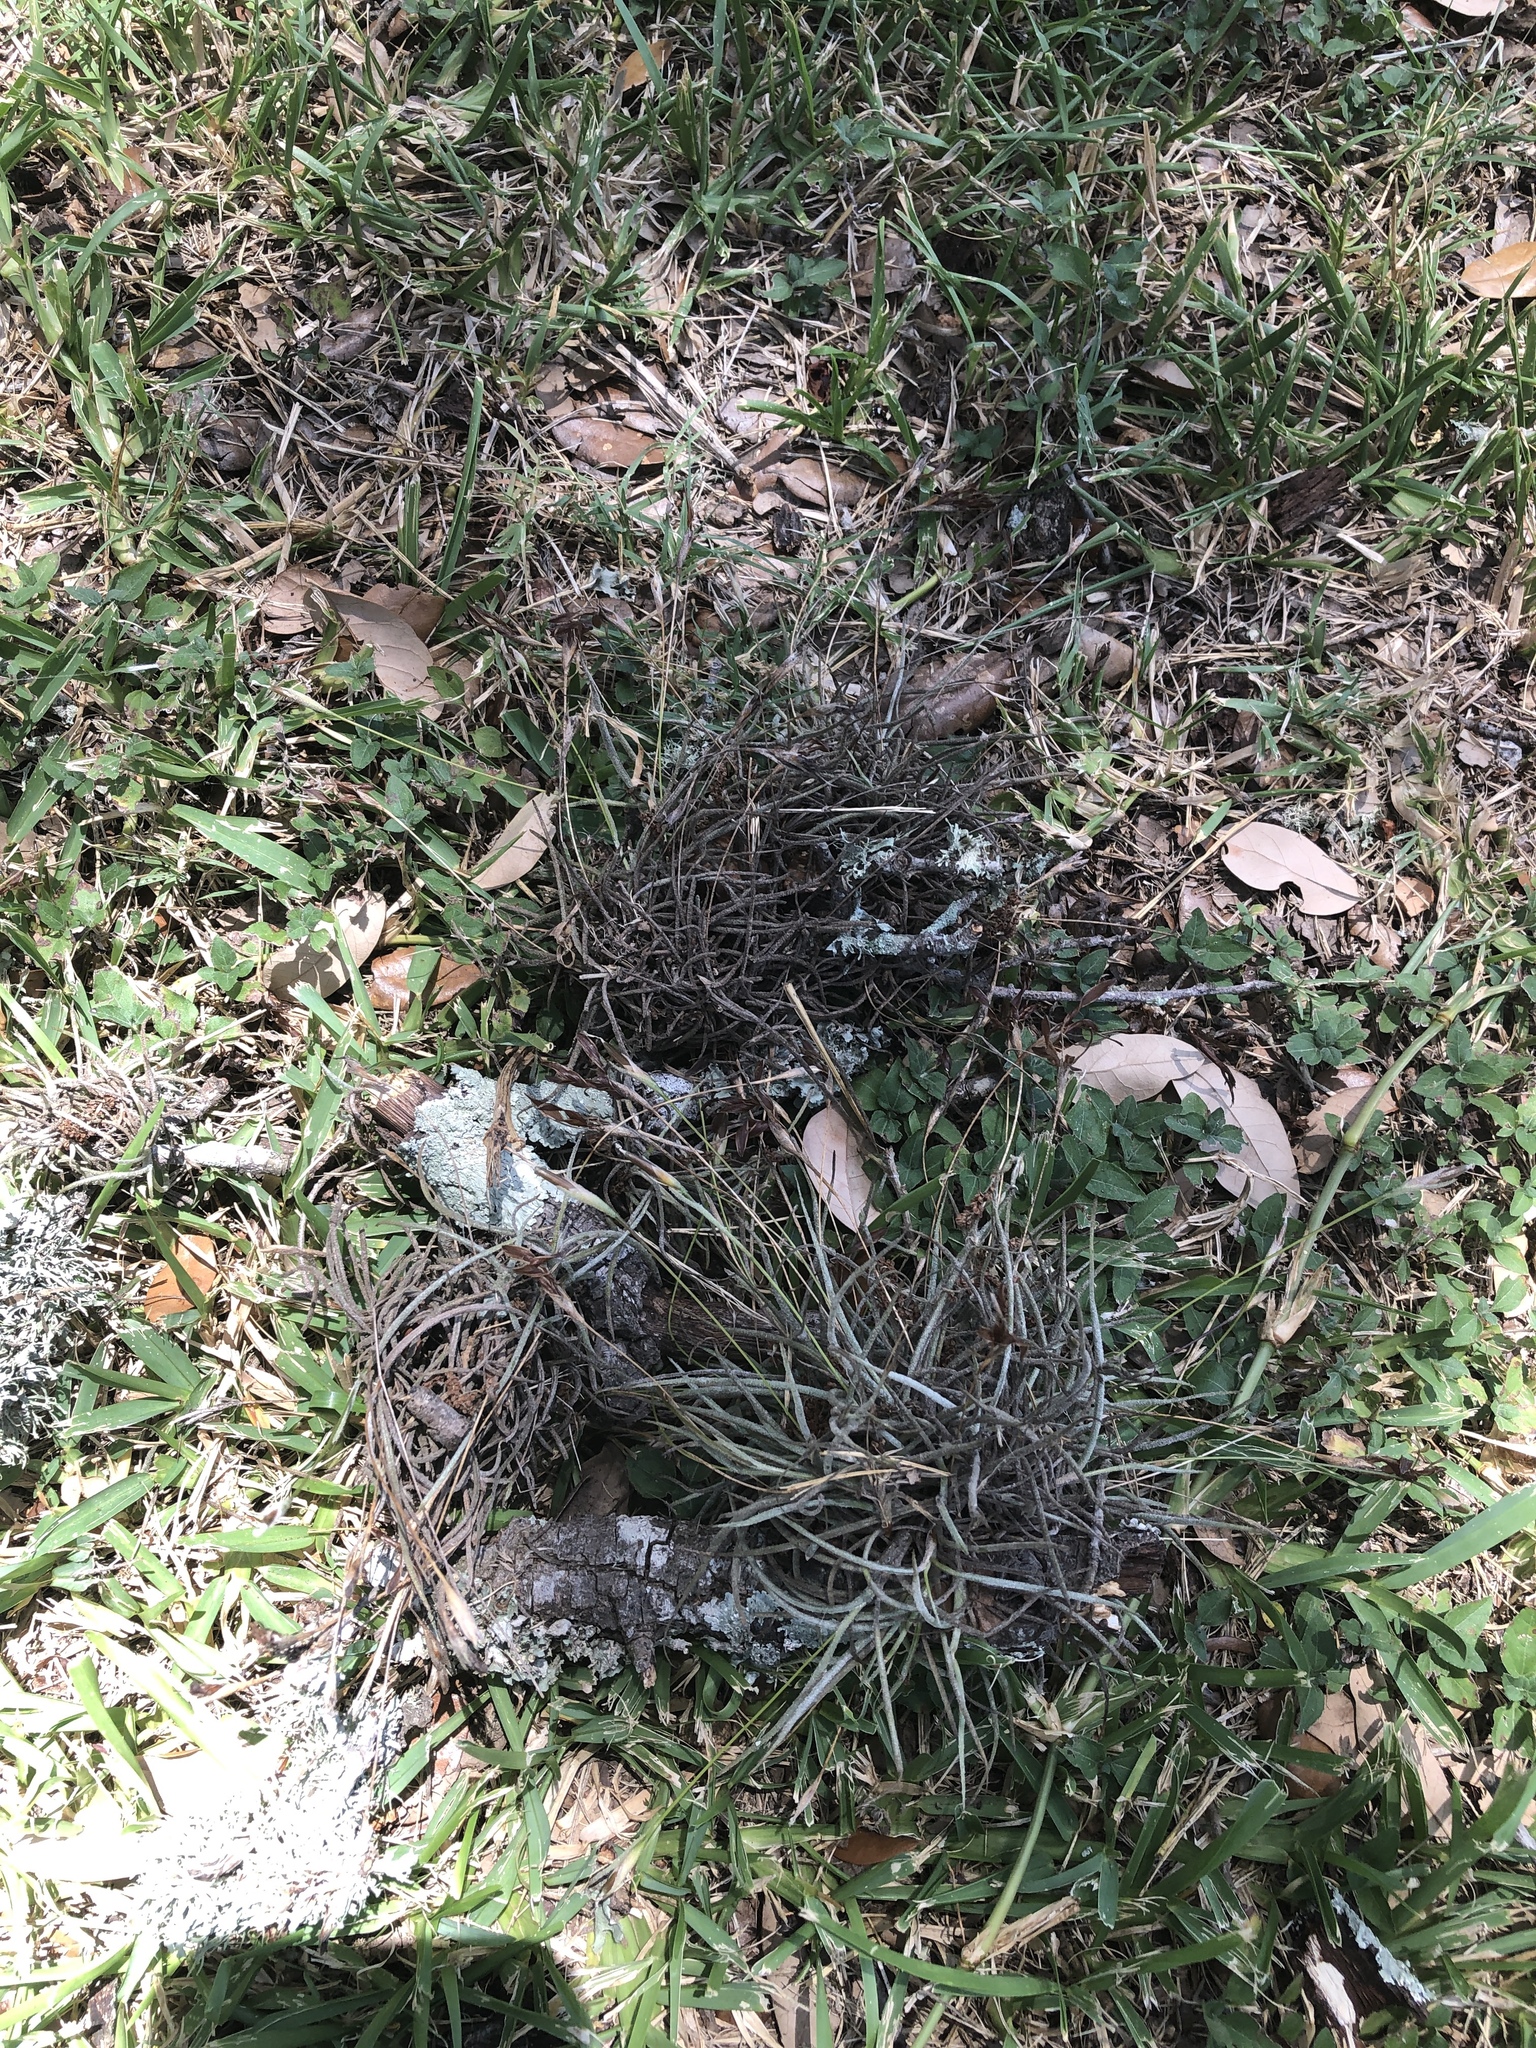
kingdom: Plantae
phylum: Tracheophyta
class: Liliopsida
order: Poales
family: Bromeliaceae
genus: Tillandsia
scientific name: Tillandsia recurvata
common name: Small ballmoss
